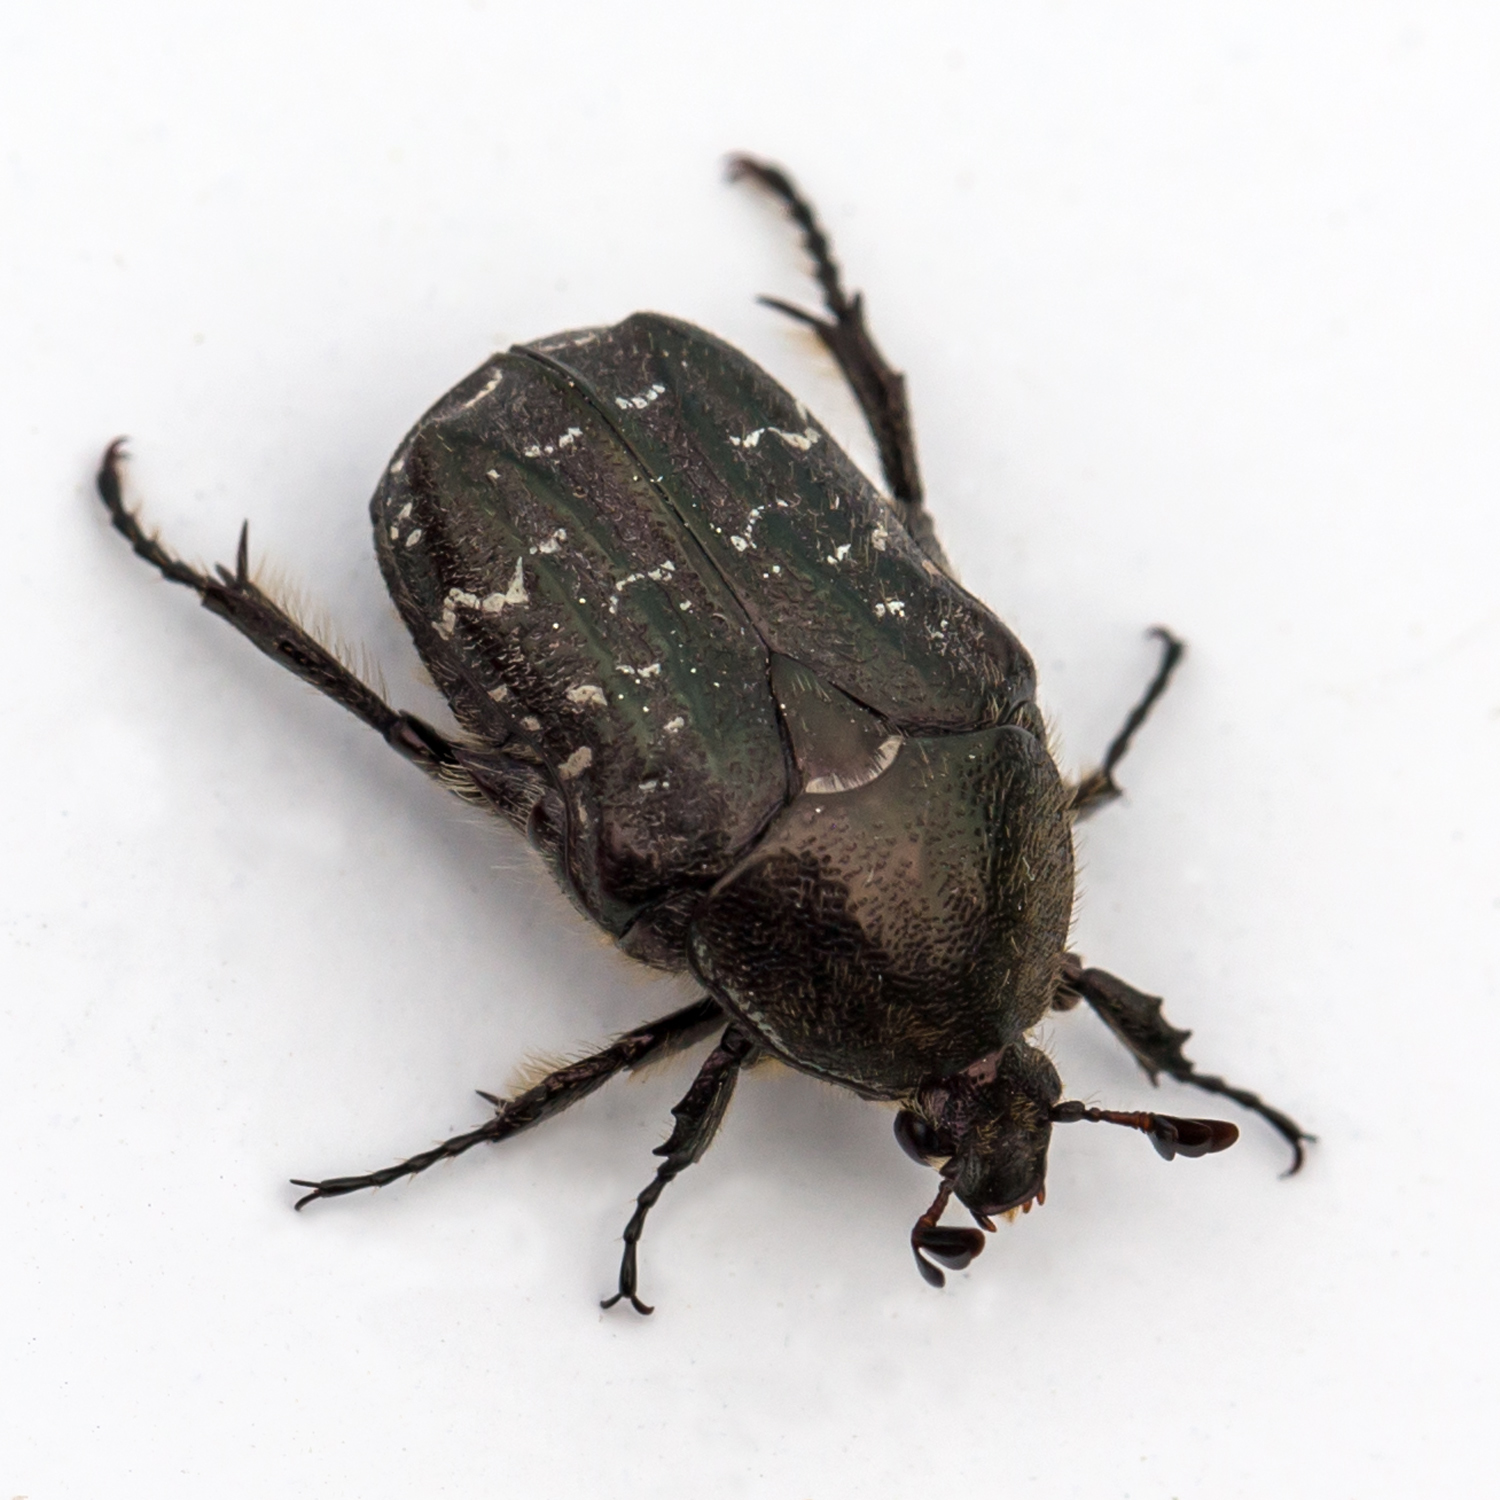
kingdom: Animalia
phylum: Arthropoda
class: Insecta
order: Coleoptera
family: Scarabaeidae
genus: Euphoria
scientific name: Euphoria sepulcralis
